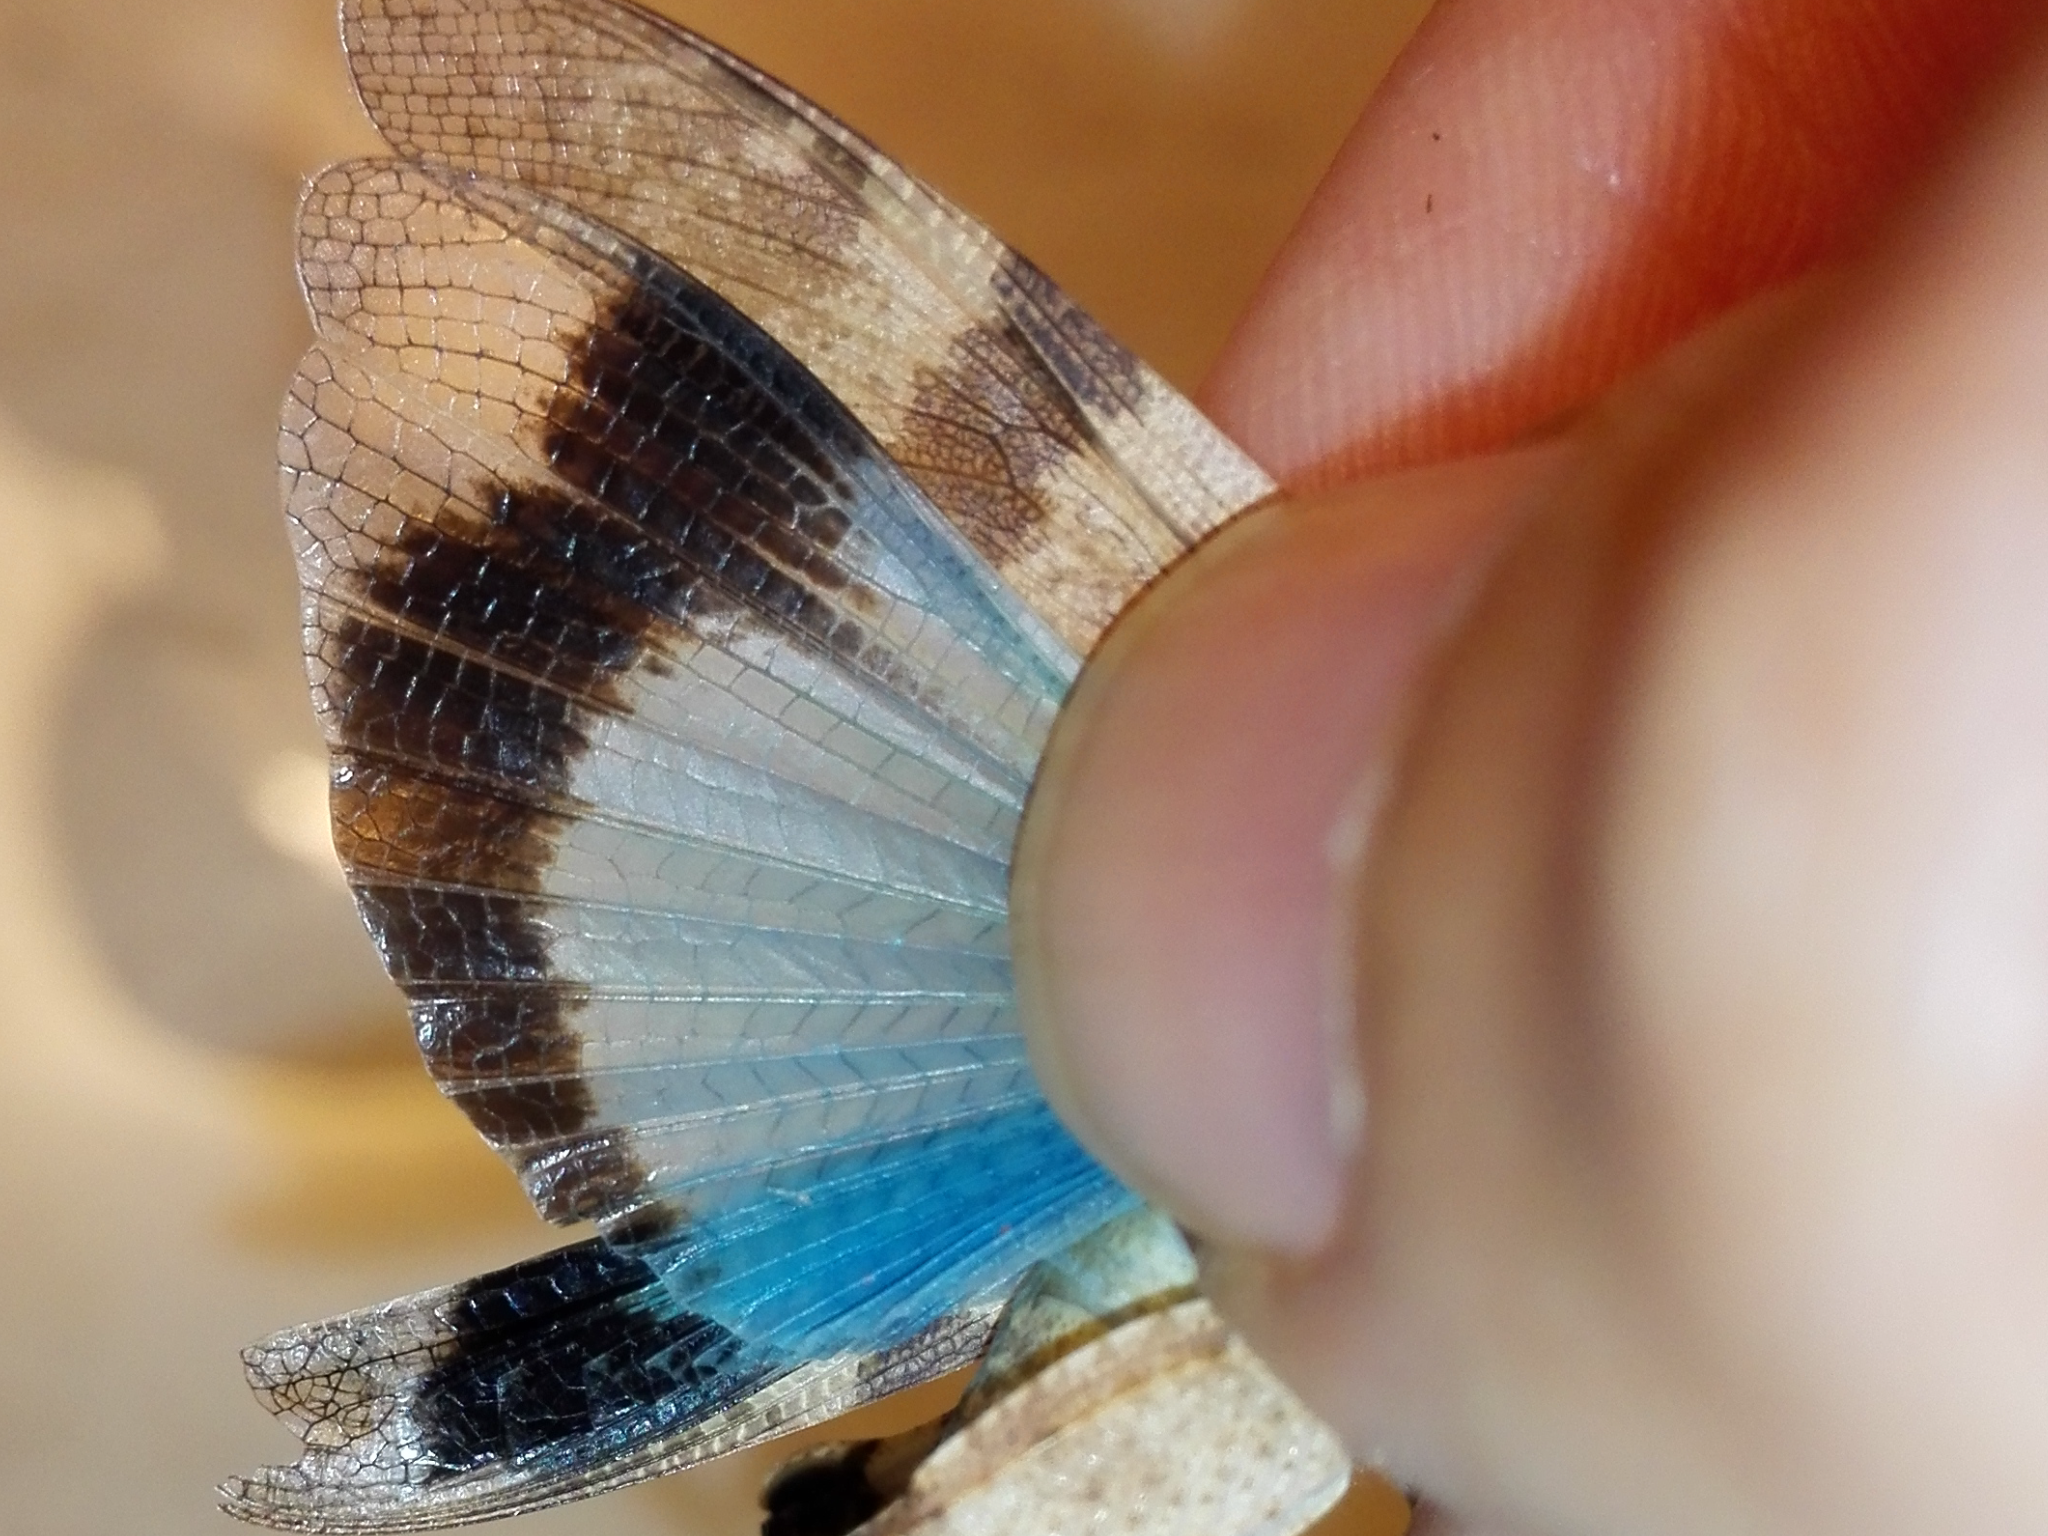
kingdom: Animalia
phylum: Arthropoda
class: Insecta
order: Orthoptera
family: Acrididae
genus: Oedipoda
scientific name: Oedipoda caerulescens
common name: Blue-winged grasshopper
